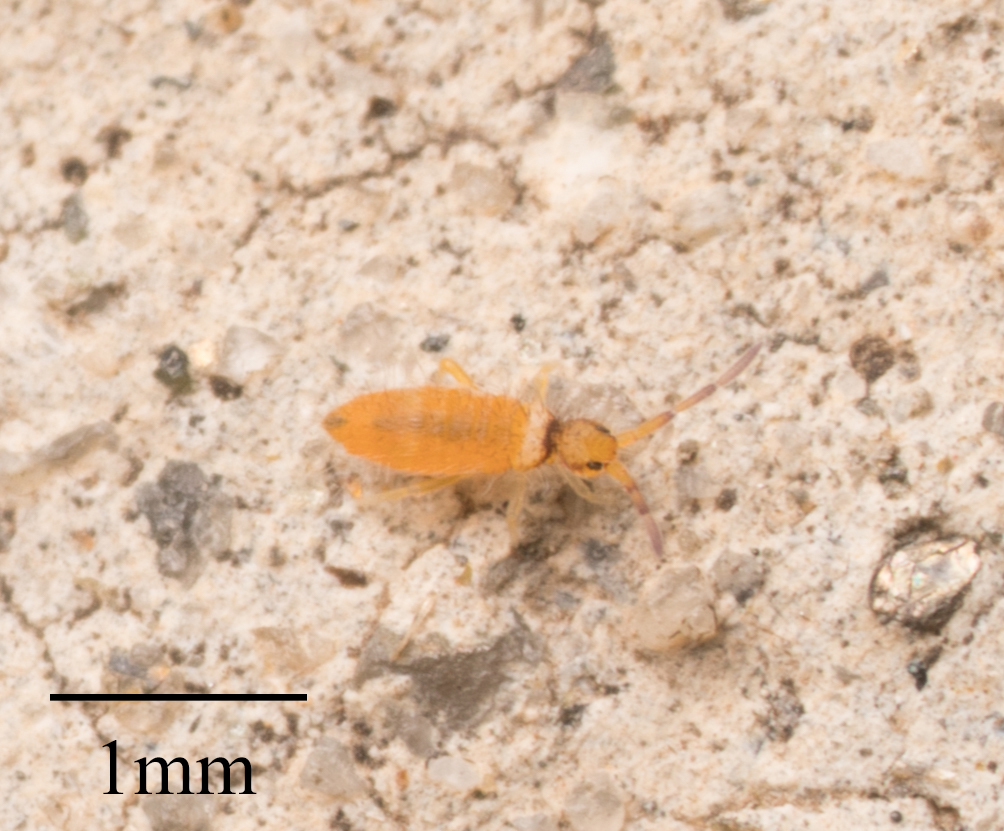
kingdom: Animalia
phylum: Arthropoda
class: Collembola
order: Entomobryomorpha
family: Entomobryidae
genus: Entomobrya
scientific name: Entomobrya atrocincta
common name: Springtail
